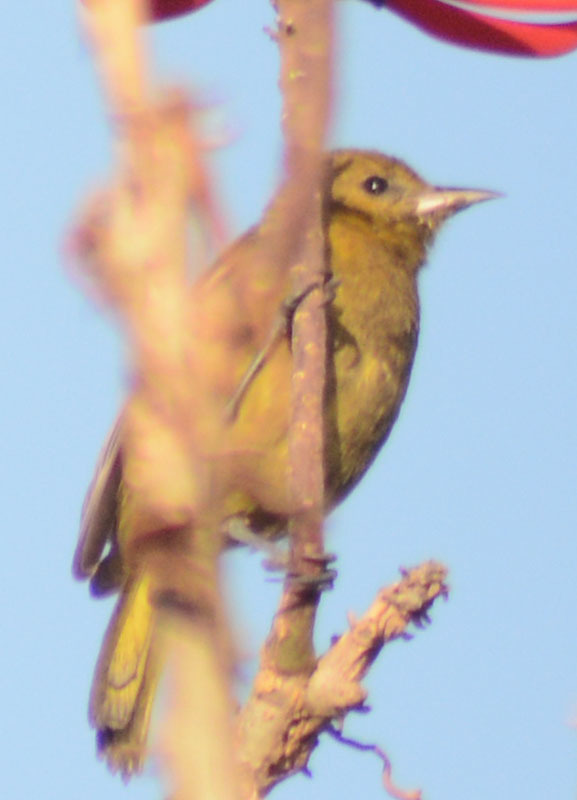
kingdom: Animalia
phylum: Chordata
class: Aves
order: Passeriformes
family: Icteridae
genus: Icterus
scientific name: Icterus spurius
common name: Orchard oriole
